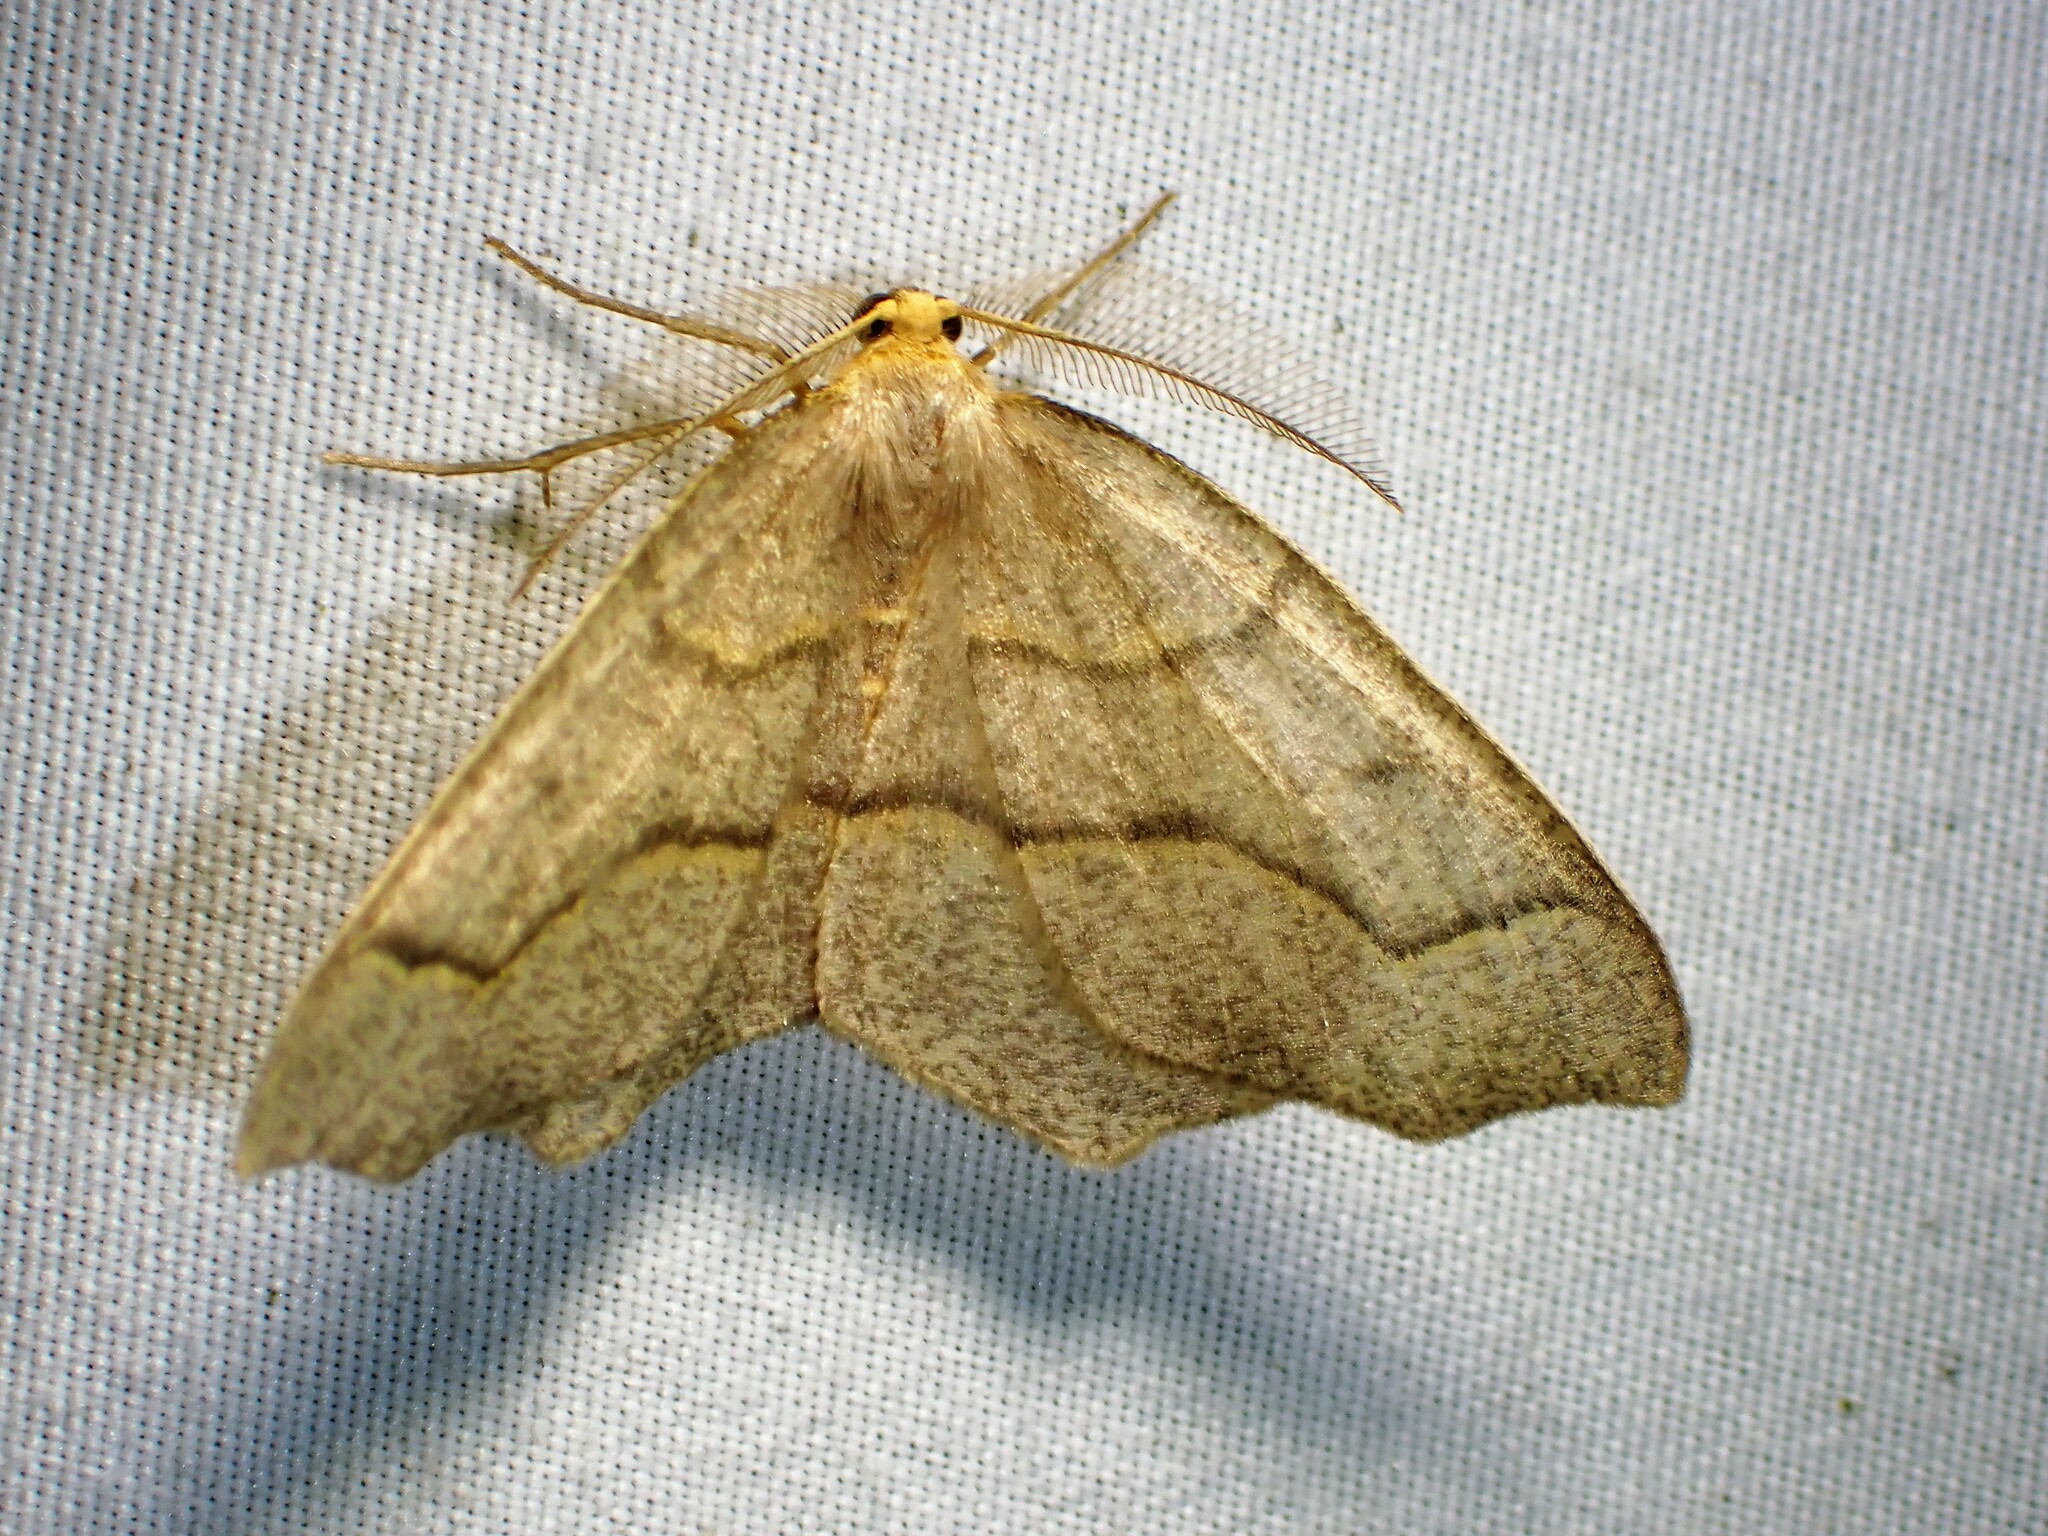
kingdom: Animalia
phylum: Arthropoda
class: Insecta
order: Lepidoptera
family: Geometridae
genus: Lambdina
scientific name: Lambdina fiscellaria
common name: Hemlock looper
